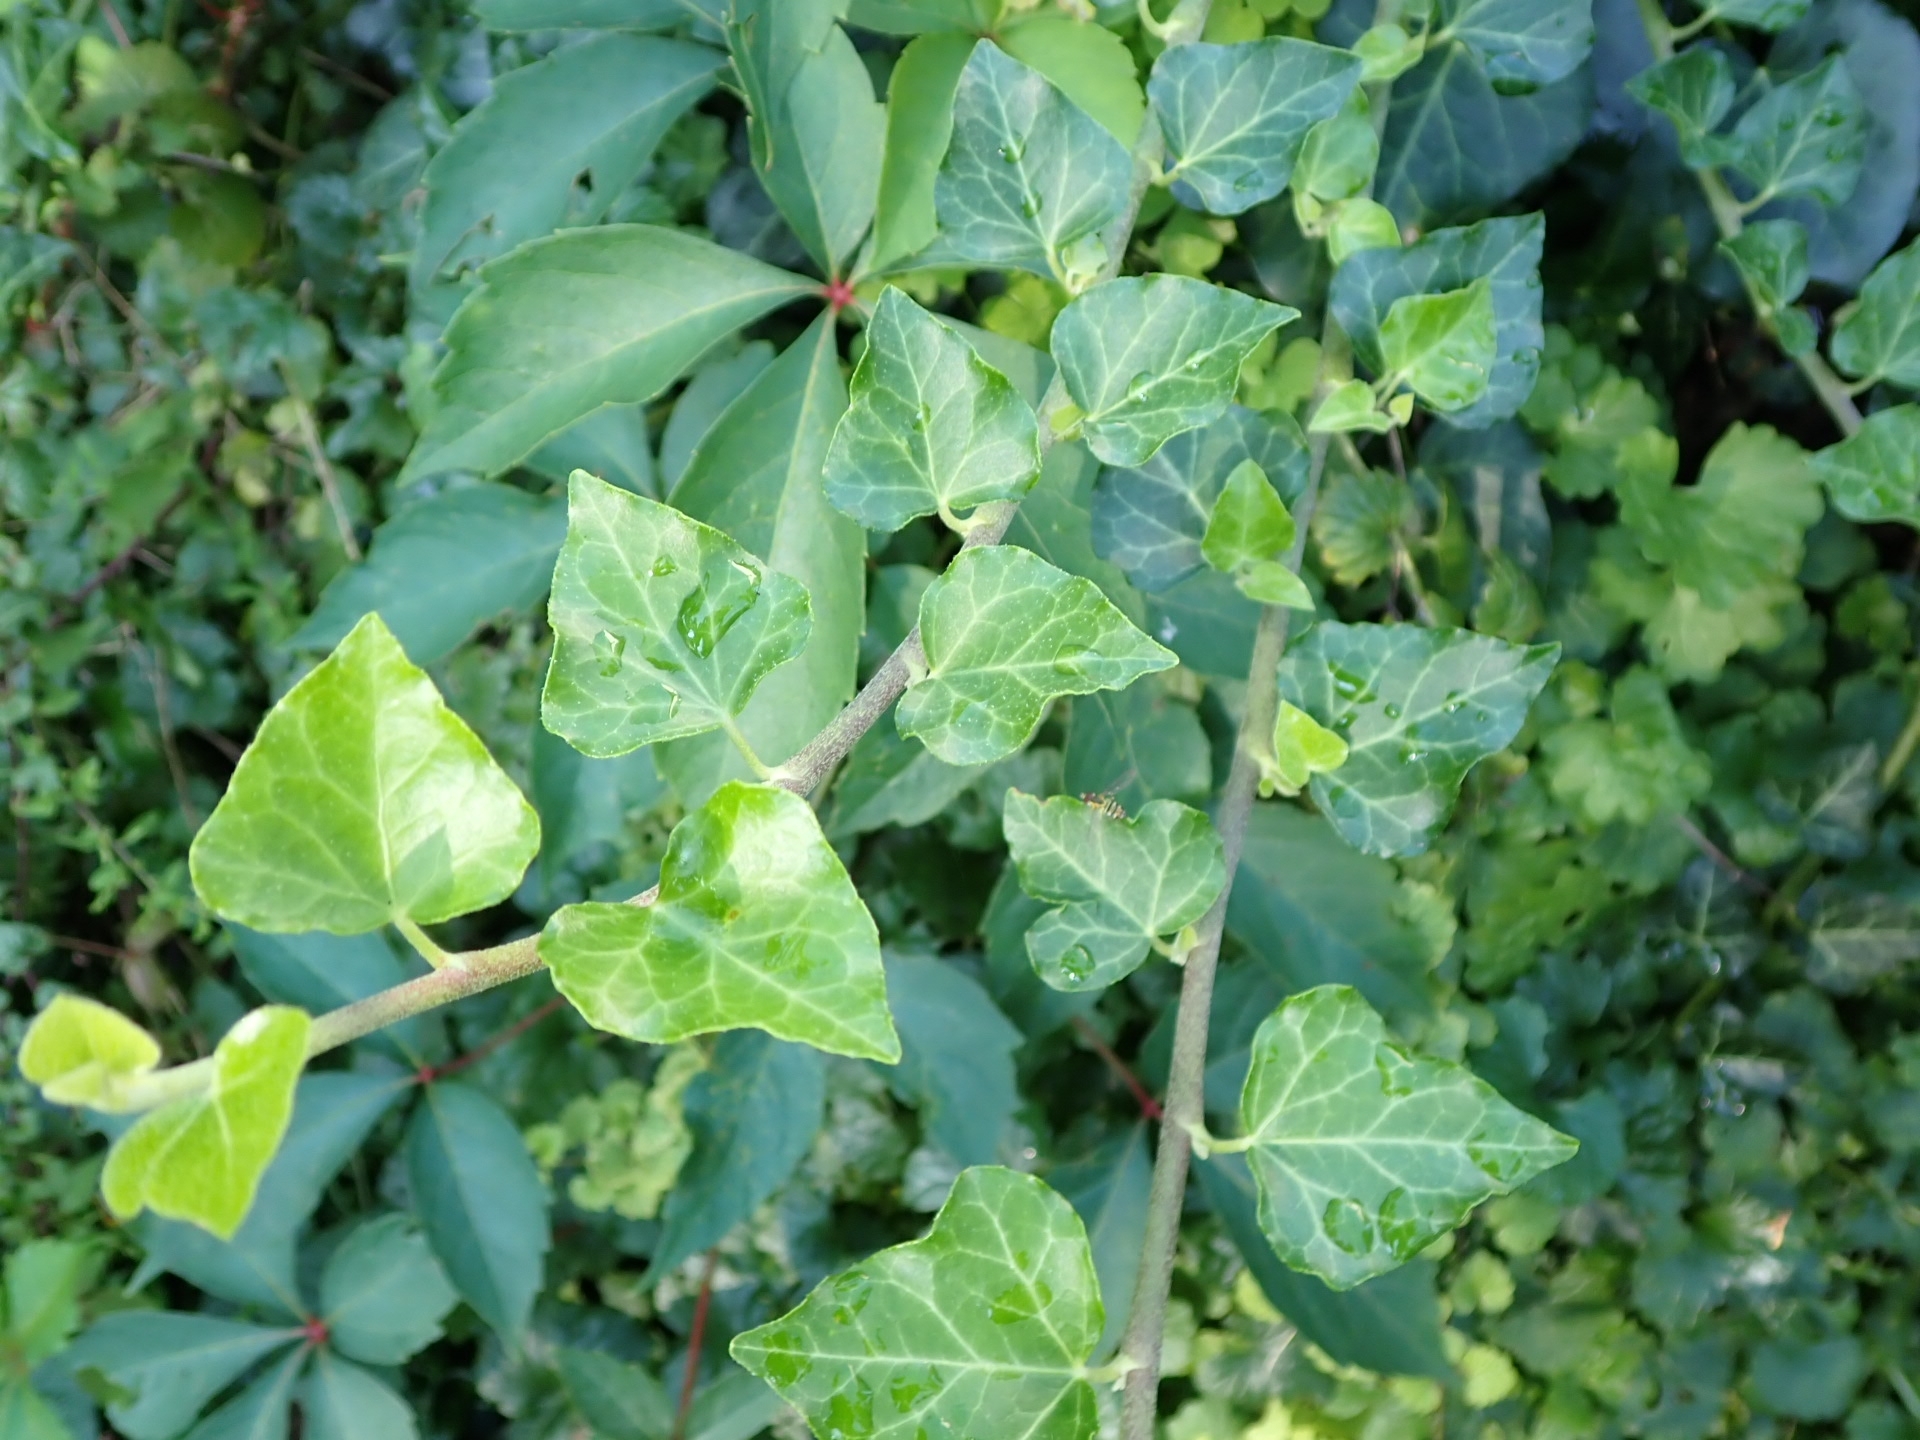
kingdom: Plantae
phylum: Tracheophyta
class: Magnoliopsida
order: Apiales
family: Araliaceae
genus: Hedera
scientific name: Hedera helix
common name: Ivy
